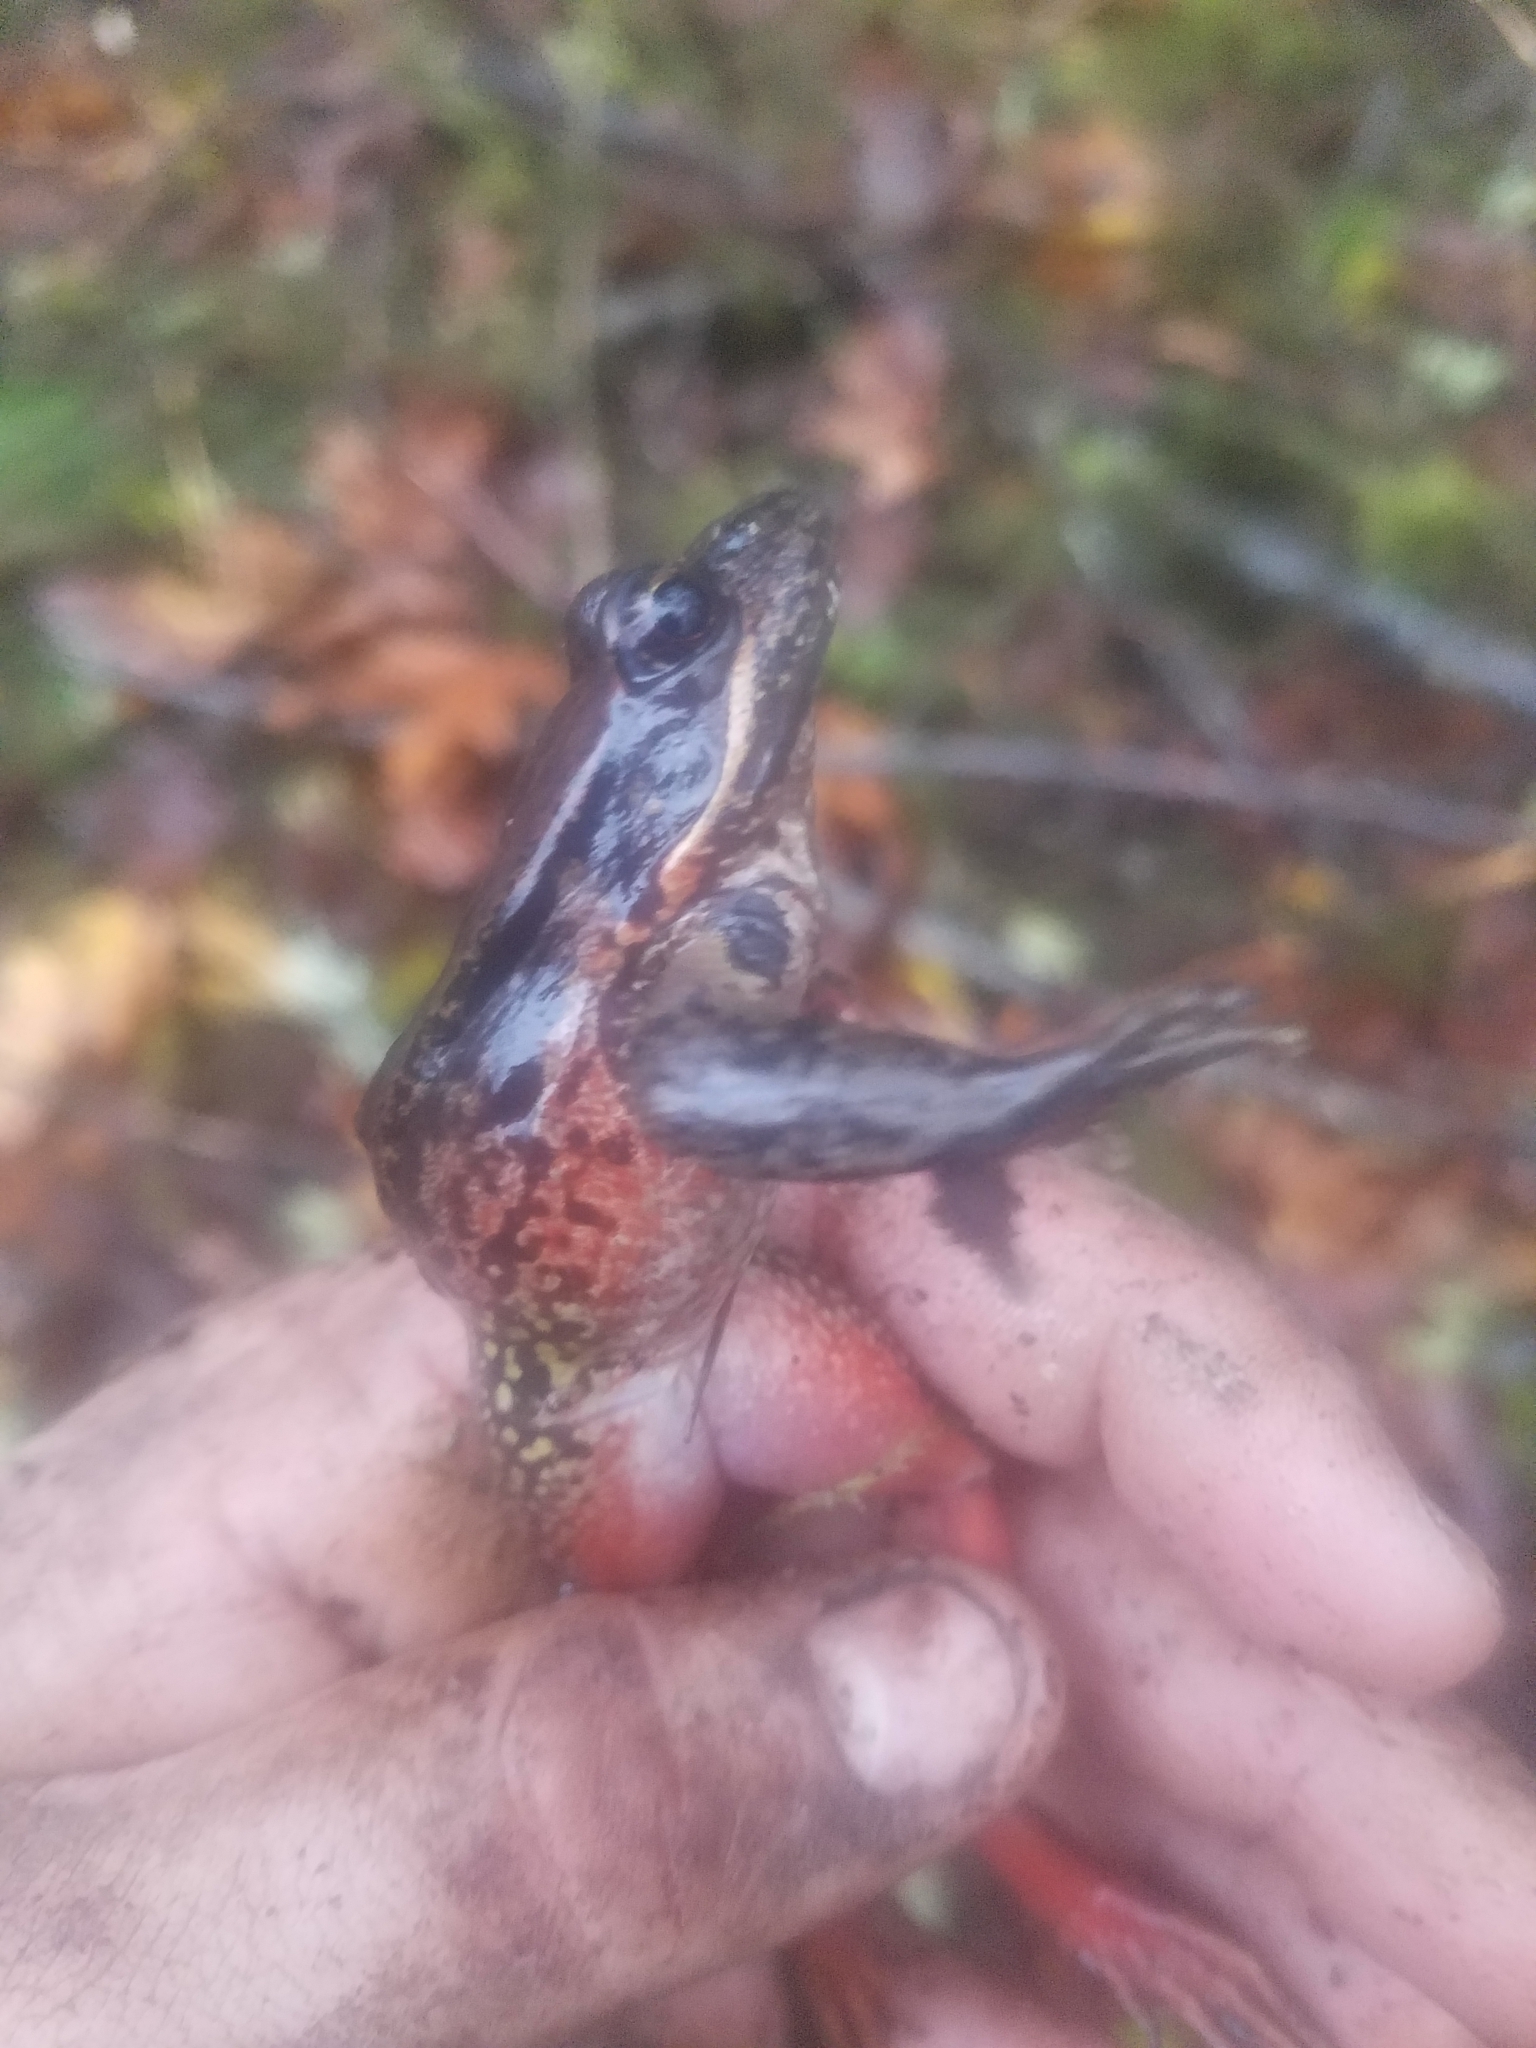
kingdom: Animalia
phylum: Chordata
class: Amphibia
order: Anura
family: Ranidae
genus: Rana
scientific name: Rana aurora
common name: Red-legged frog
